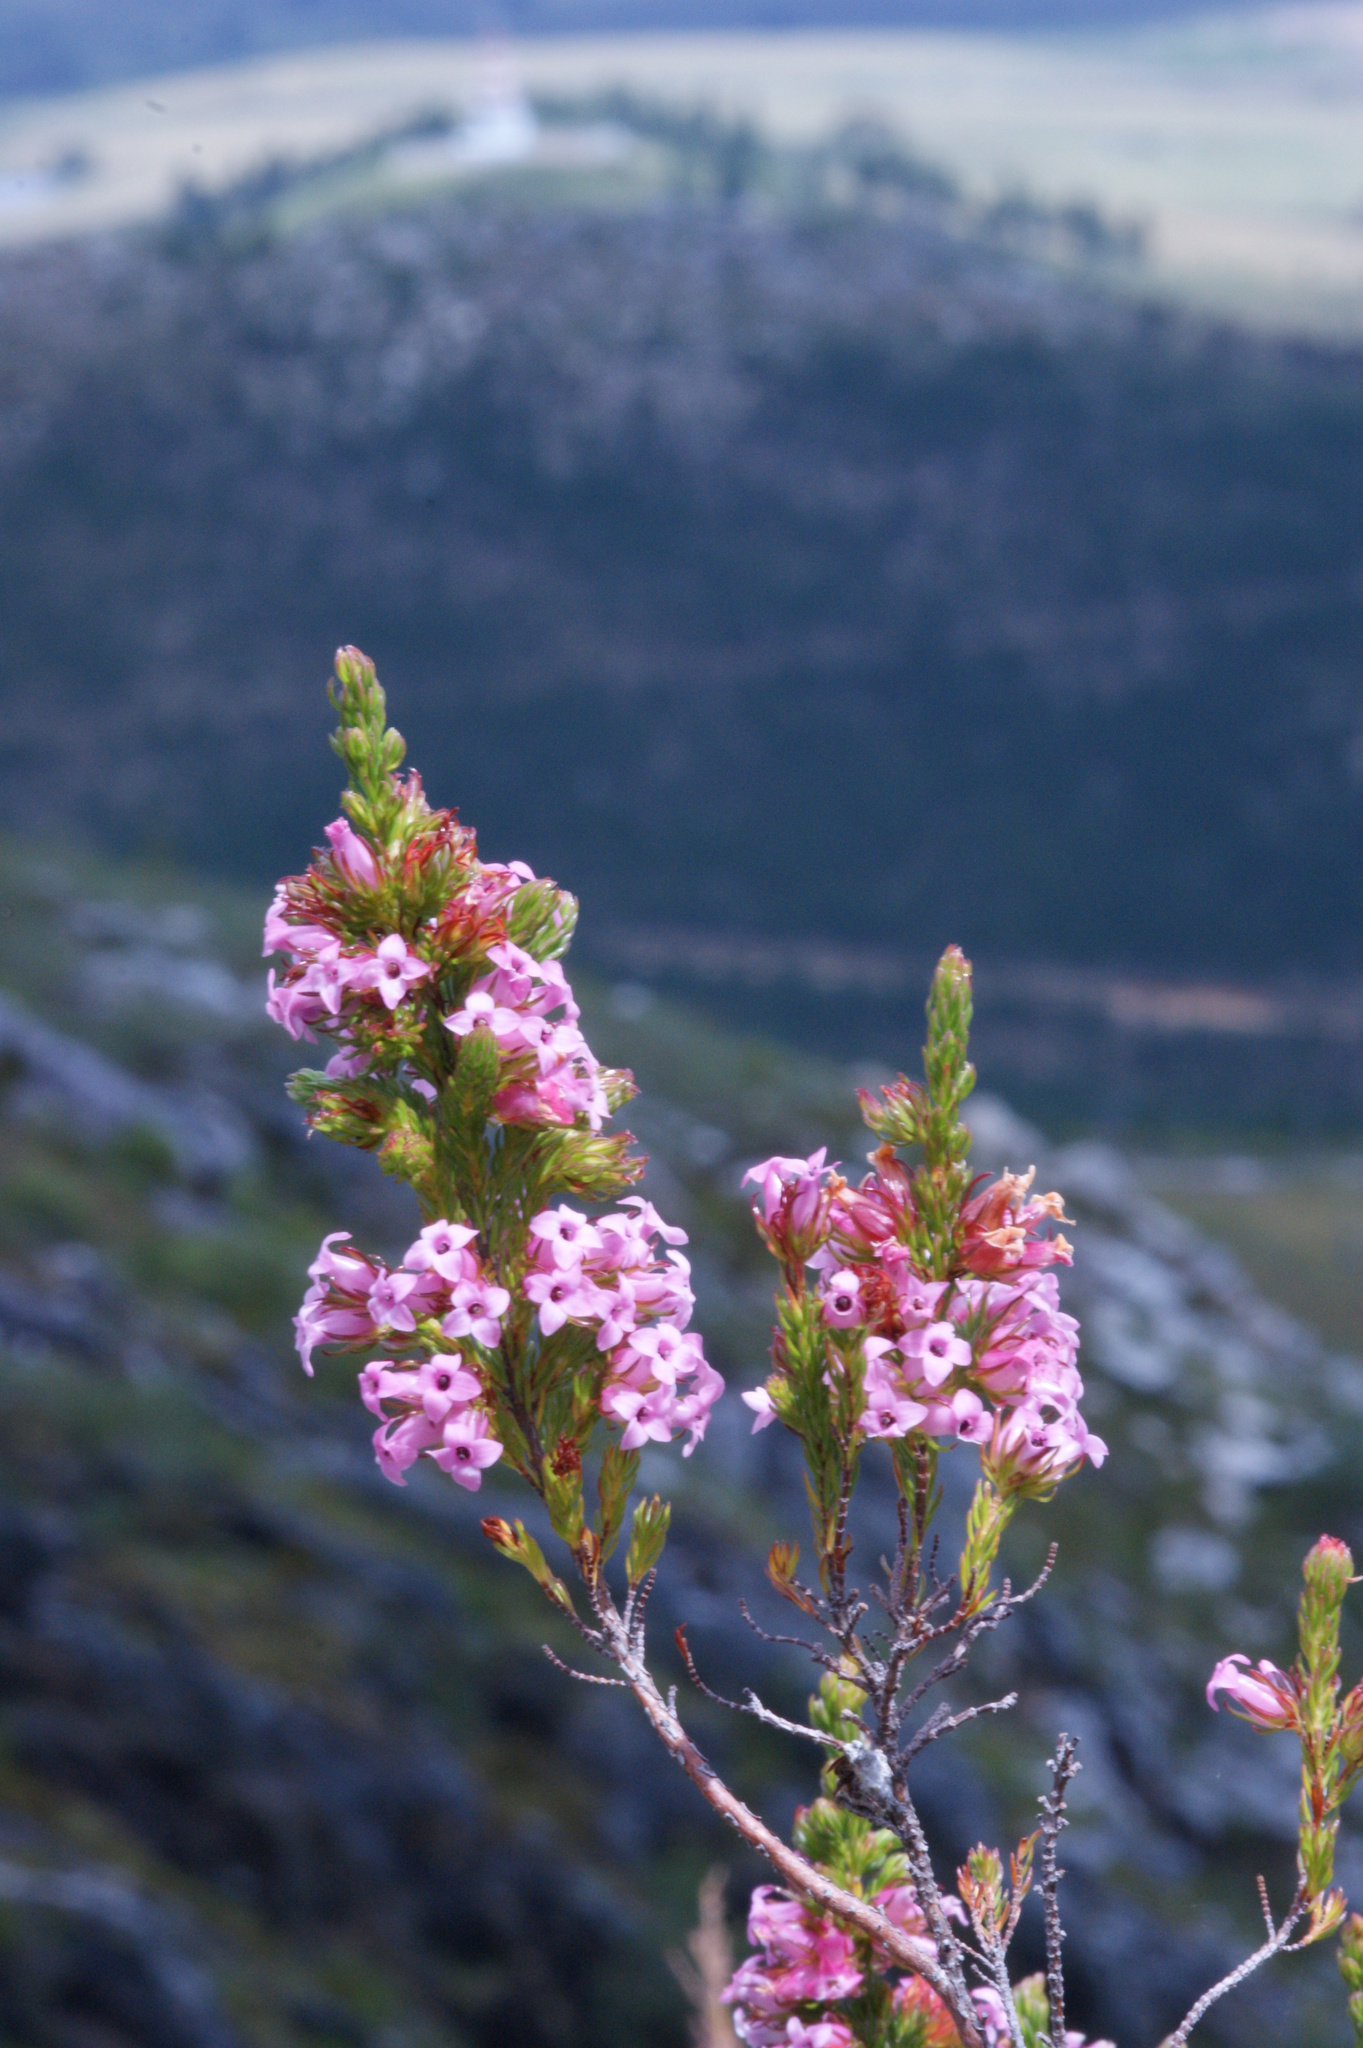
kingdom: Plantae
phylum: Tracheophyta
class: Magnoliopsida
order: Ericales
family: Ericaceae
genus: Erica
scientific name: Erica daphniflora
